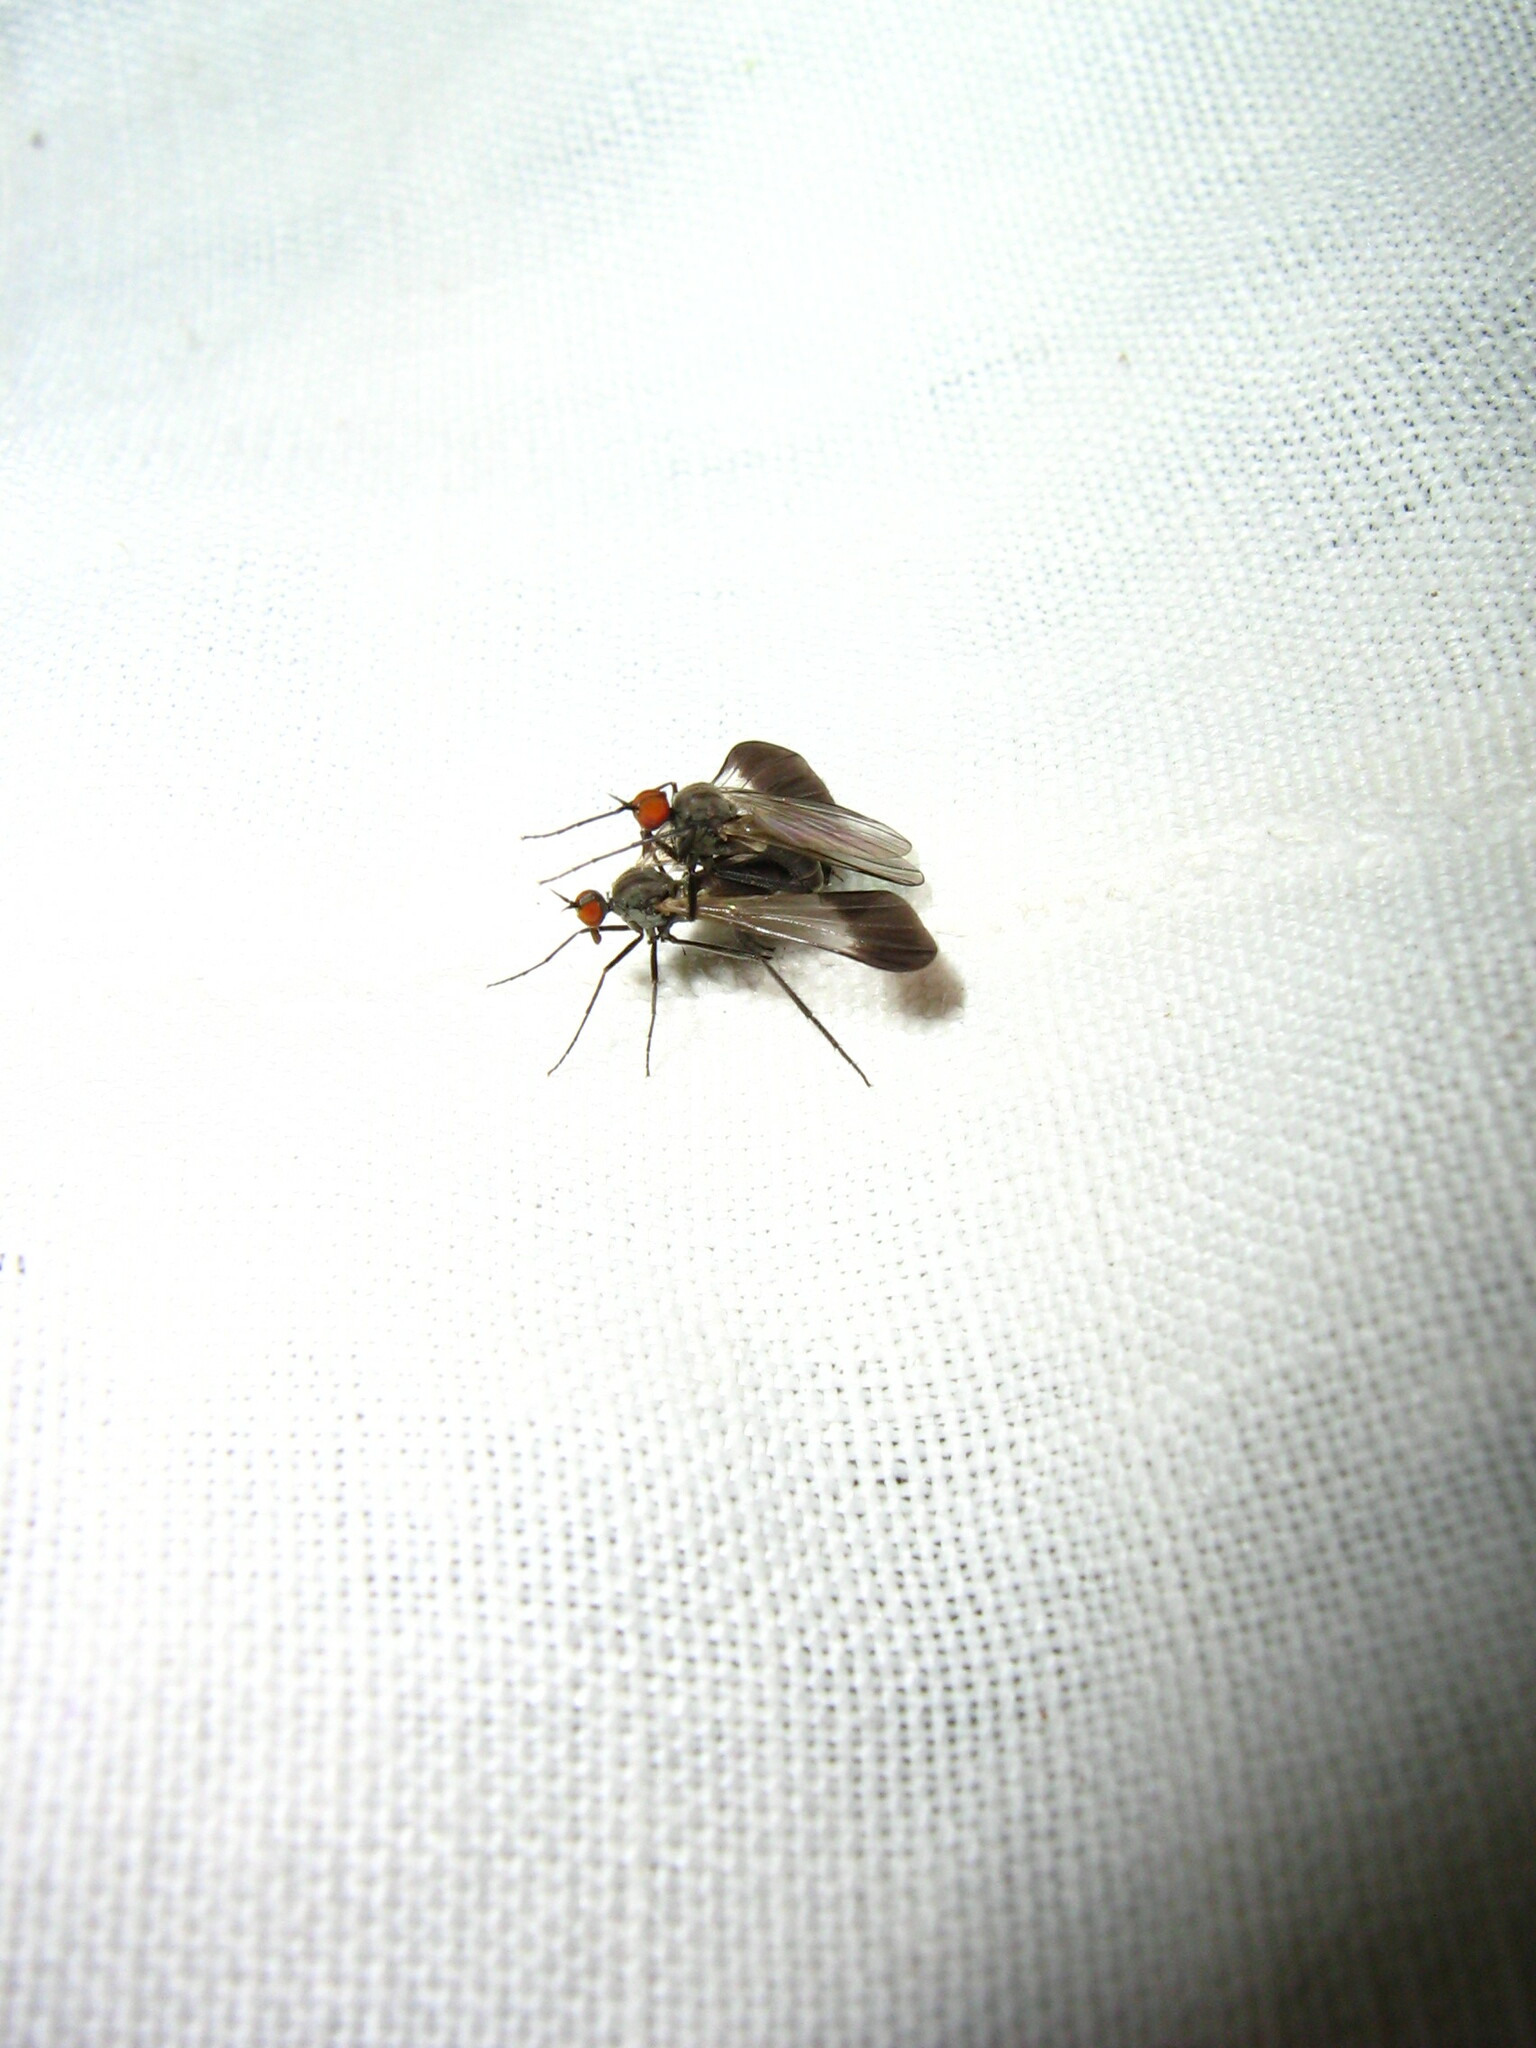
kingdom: Animalia
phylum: Arthropoda
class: Insecta
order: Diptera
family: Empididae
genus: Rhamphomyia
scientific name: Rhamphomyia marginata
